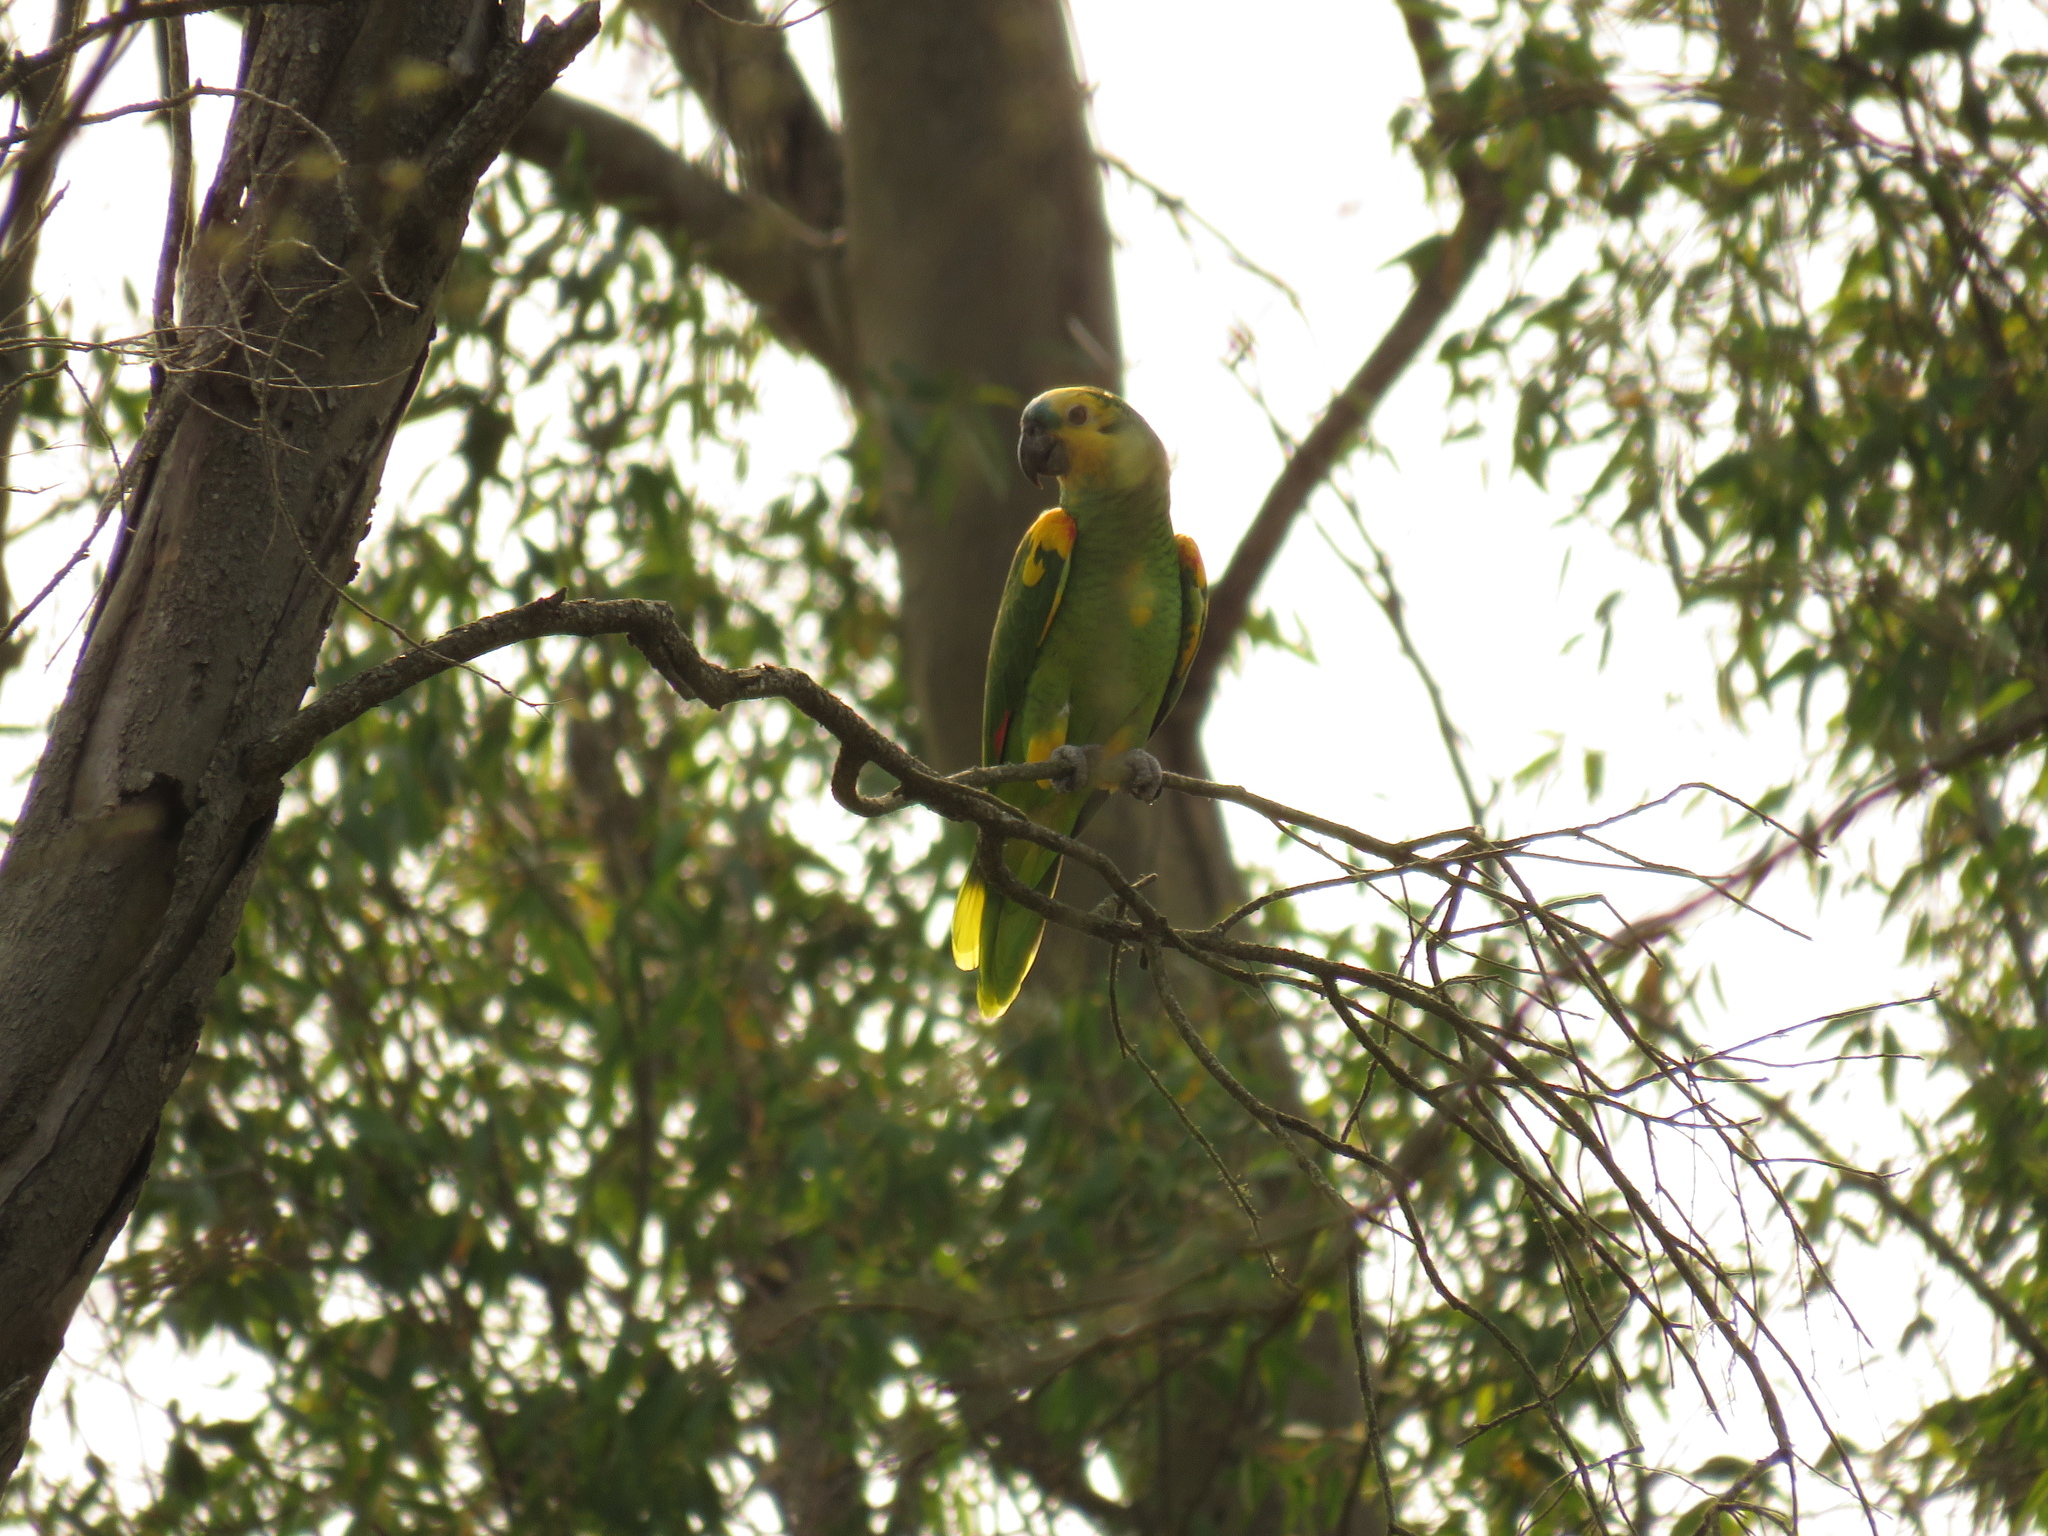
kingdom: Animalia
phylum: Chordata
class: Aves
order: Psittaciformes
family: Psittacidae
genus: Amazona
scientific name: Amazona aestiva
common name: Turquoise-fronted amazon
